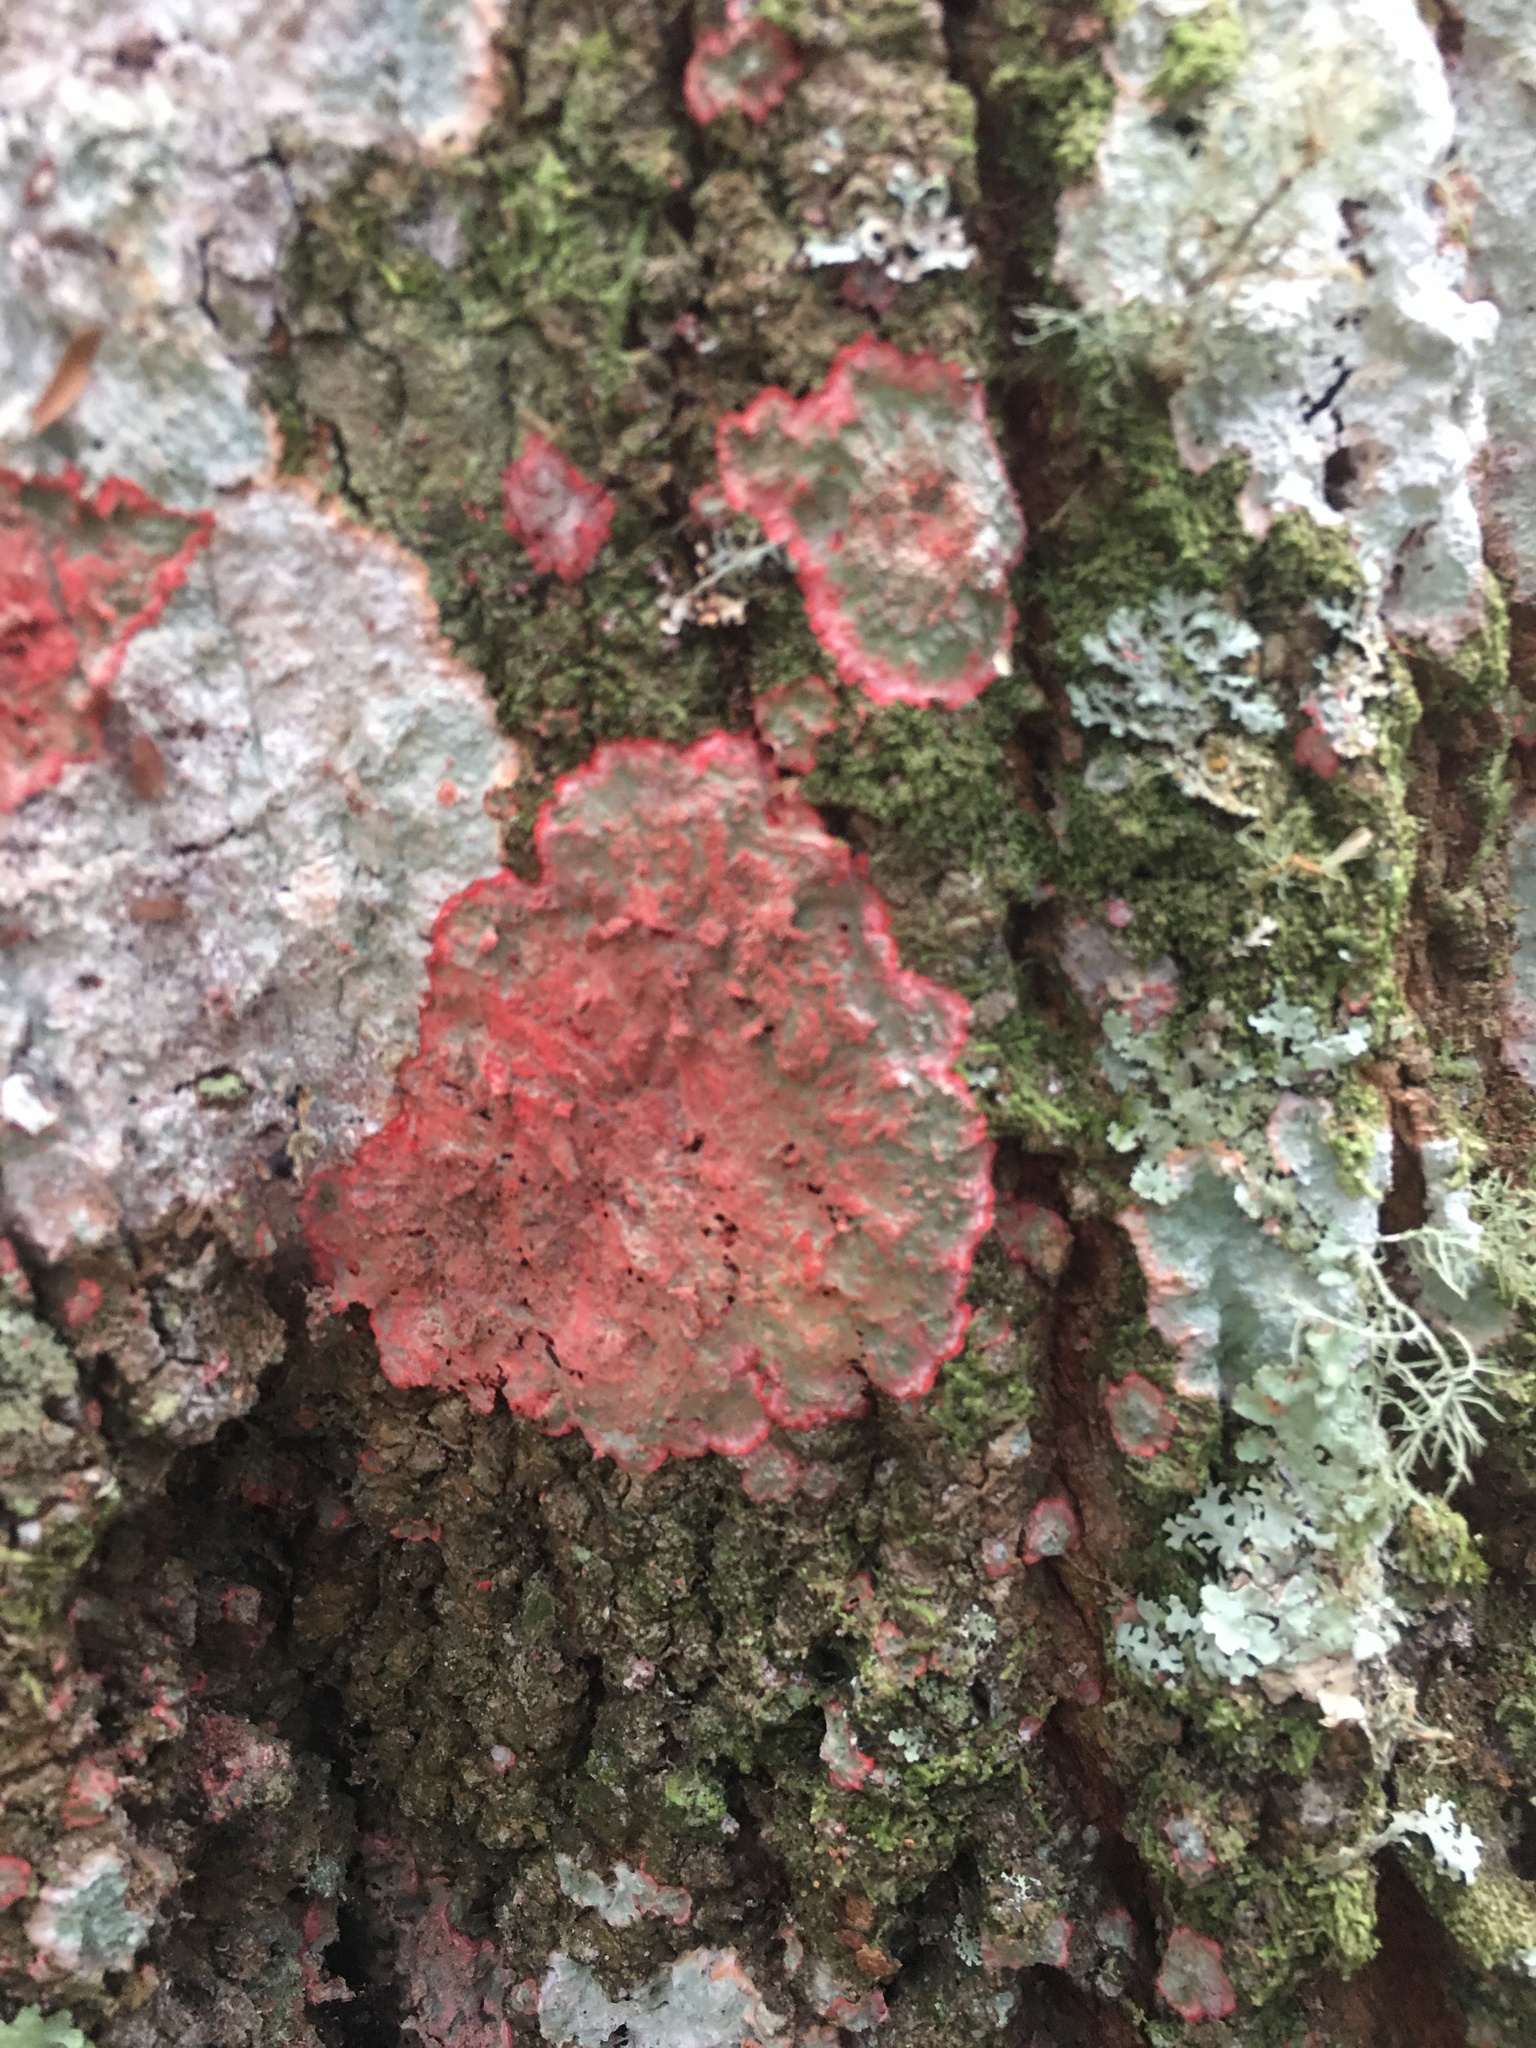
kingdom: Fungi
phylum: Ascomycota
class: Arthoniomycetes
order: Arthoniales
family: Arthoniaceae
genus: Herpothallon
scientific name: Herpothallon rubrocinctum
